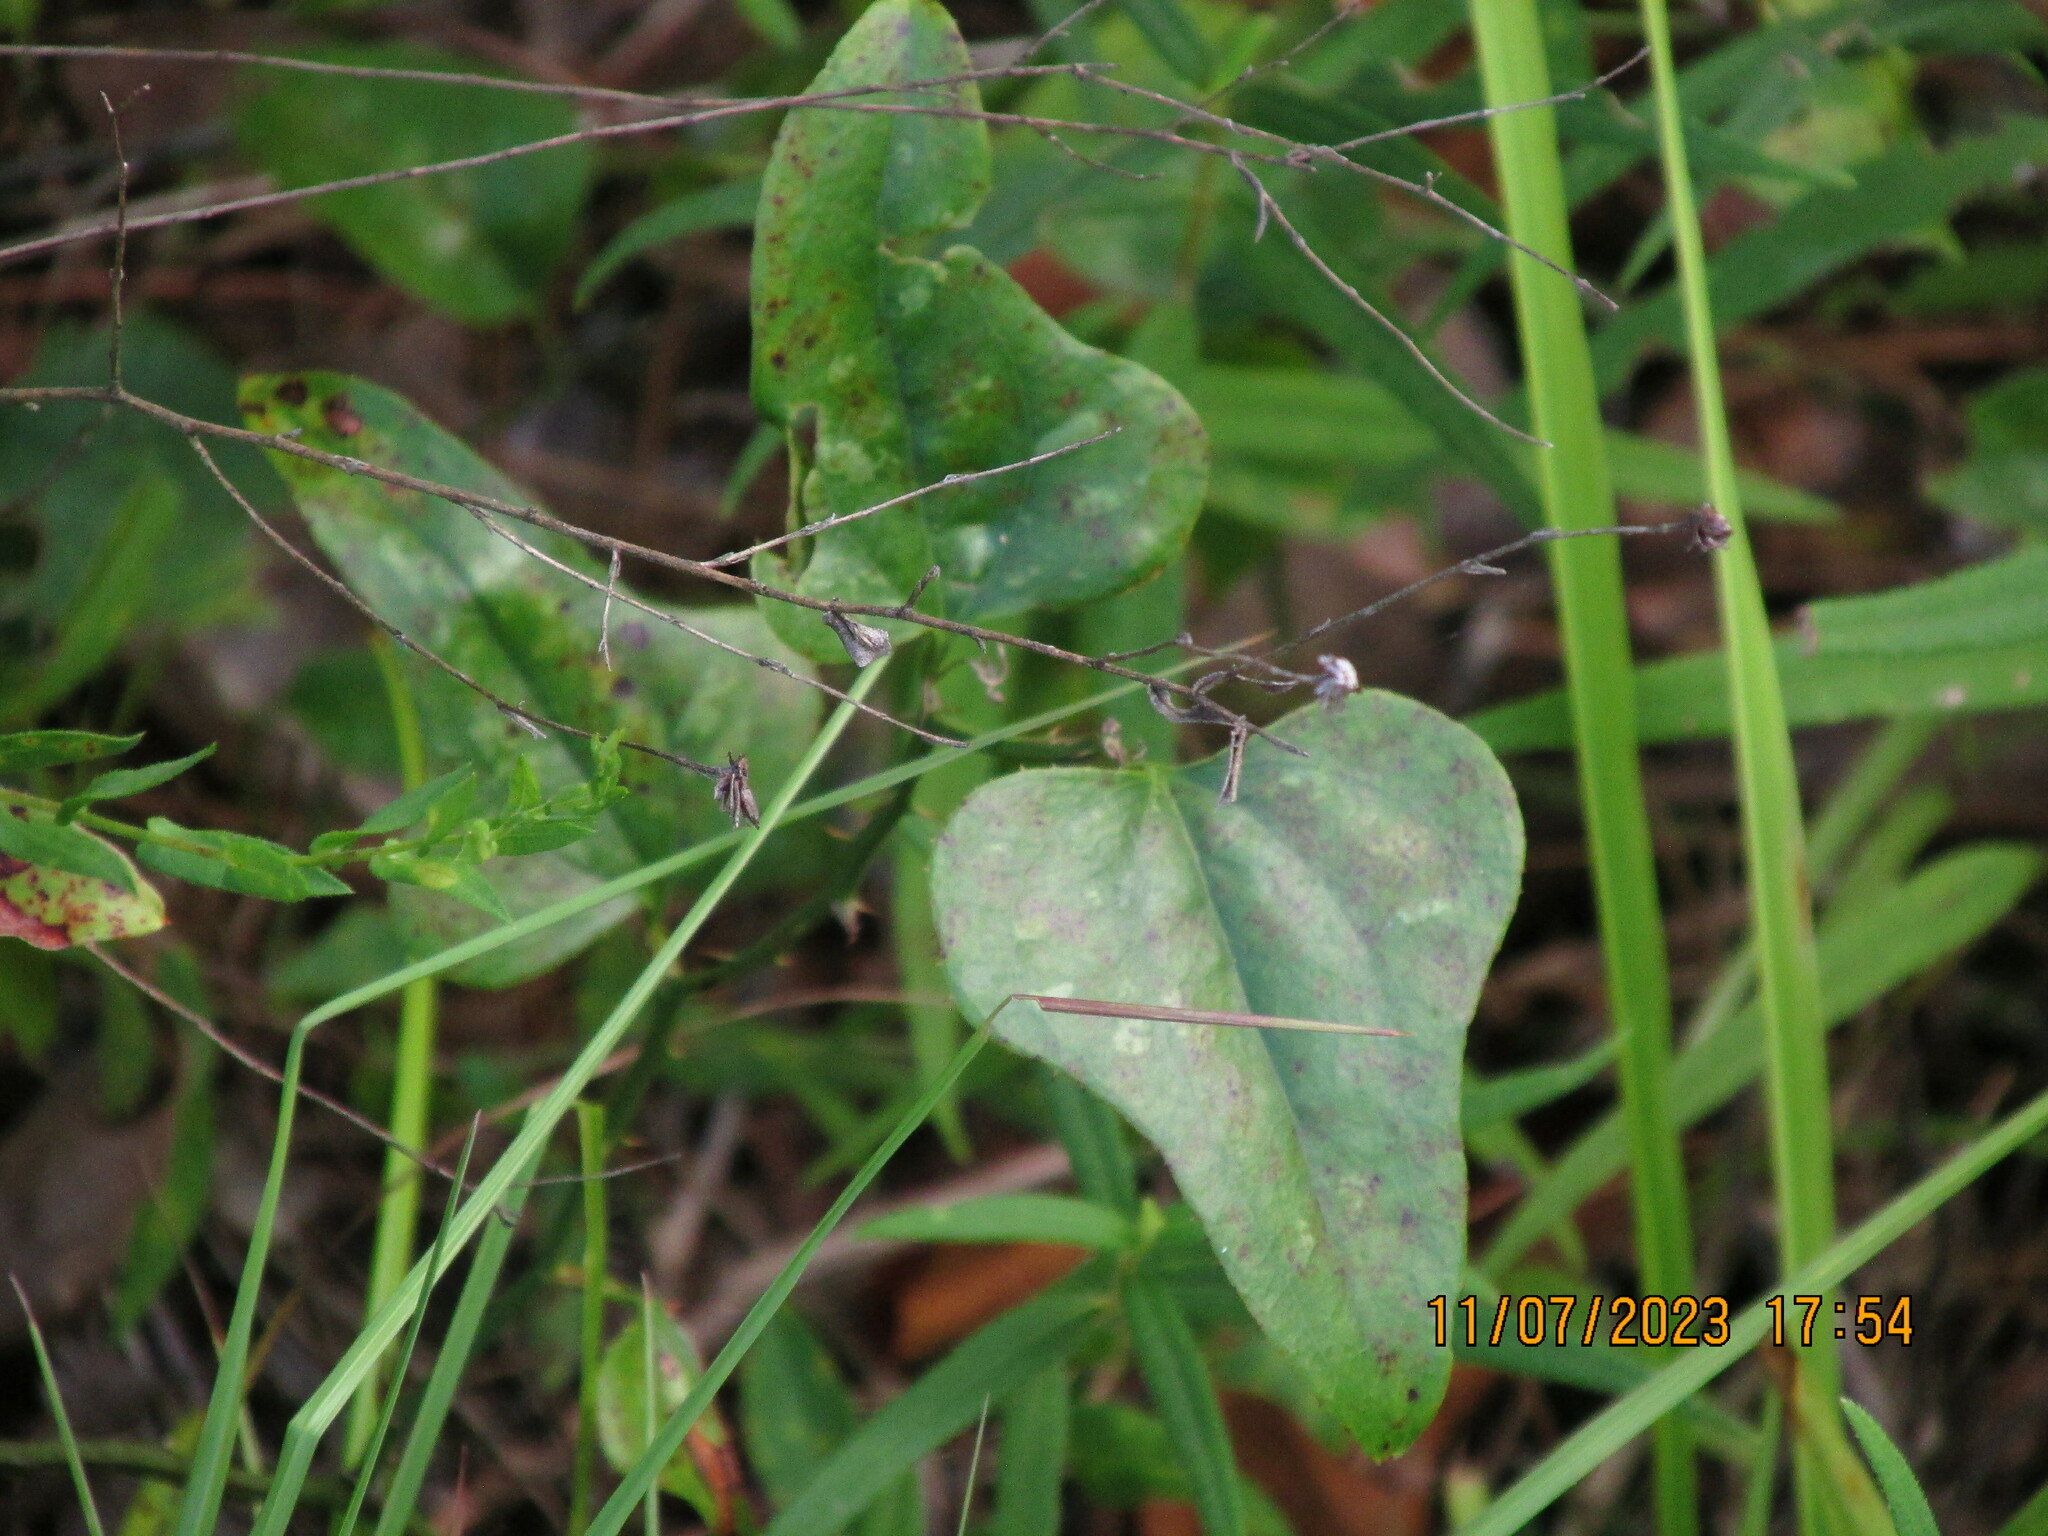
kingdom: Plantae
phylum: Tracheophyta
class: Liliopsida
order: Liliales
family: Smilacaceae
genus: Smilax
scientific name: Smilax bona-nox
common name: Catbrier
